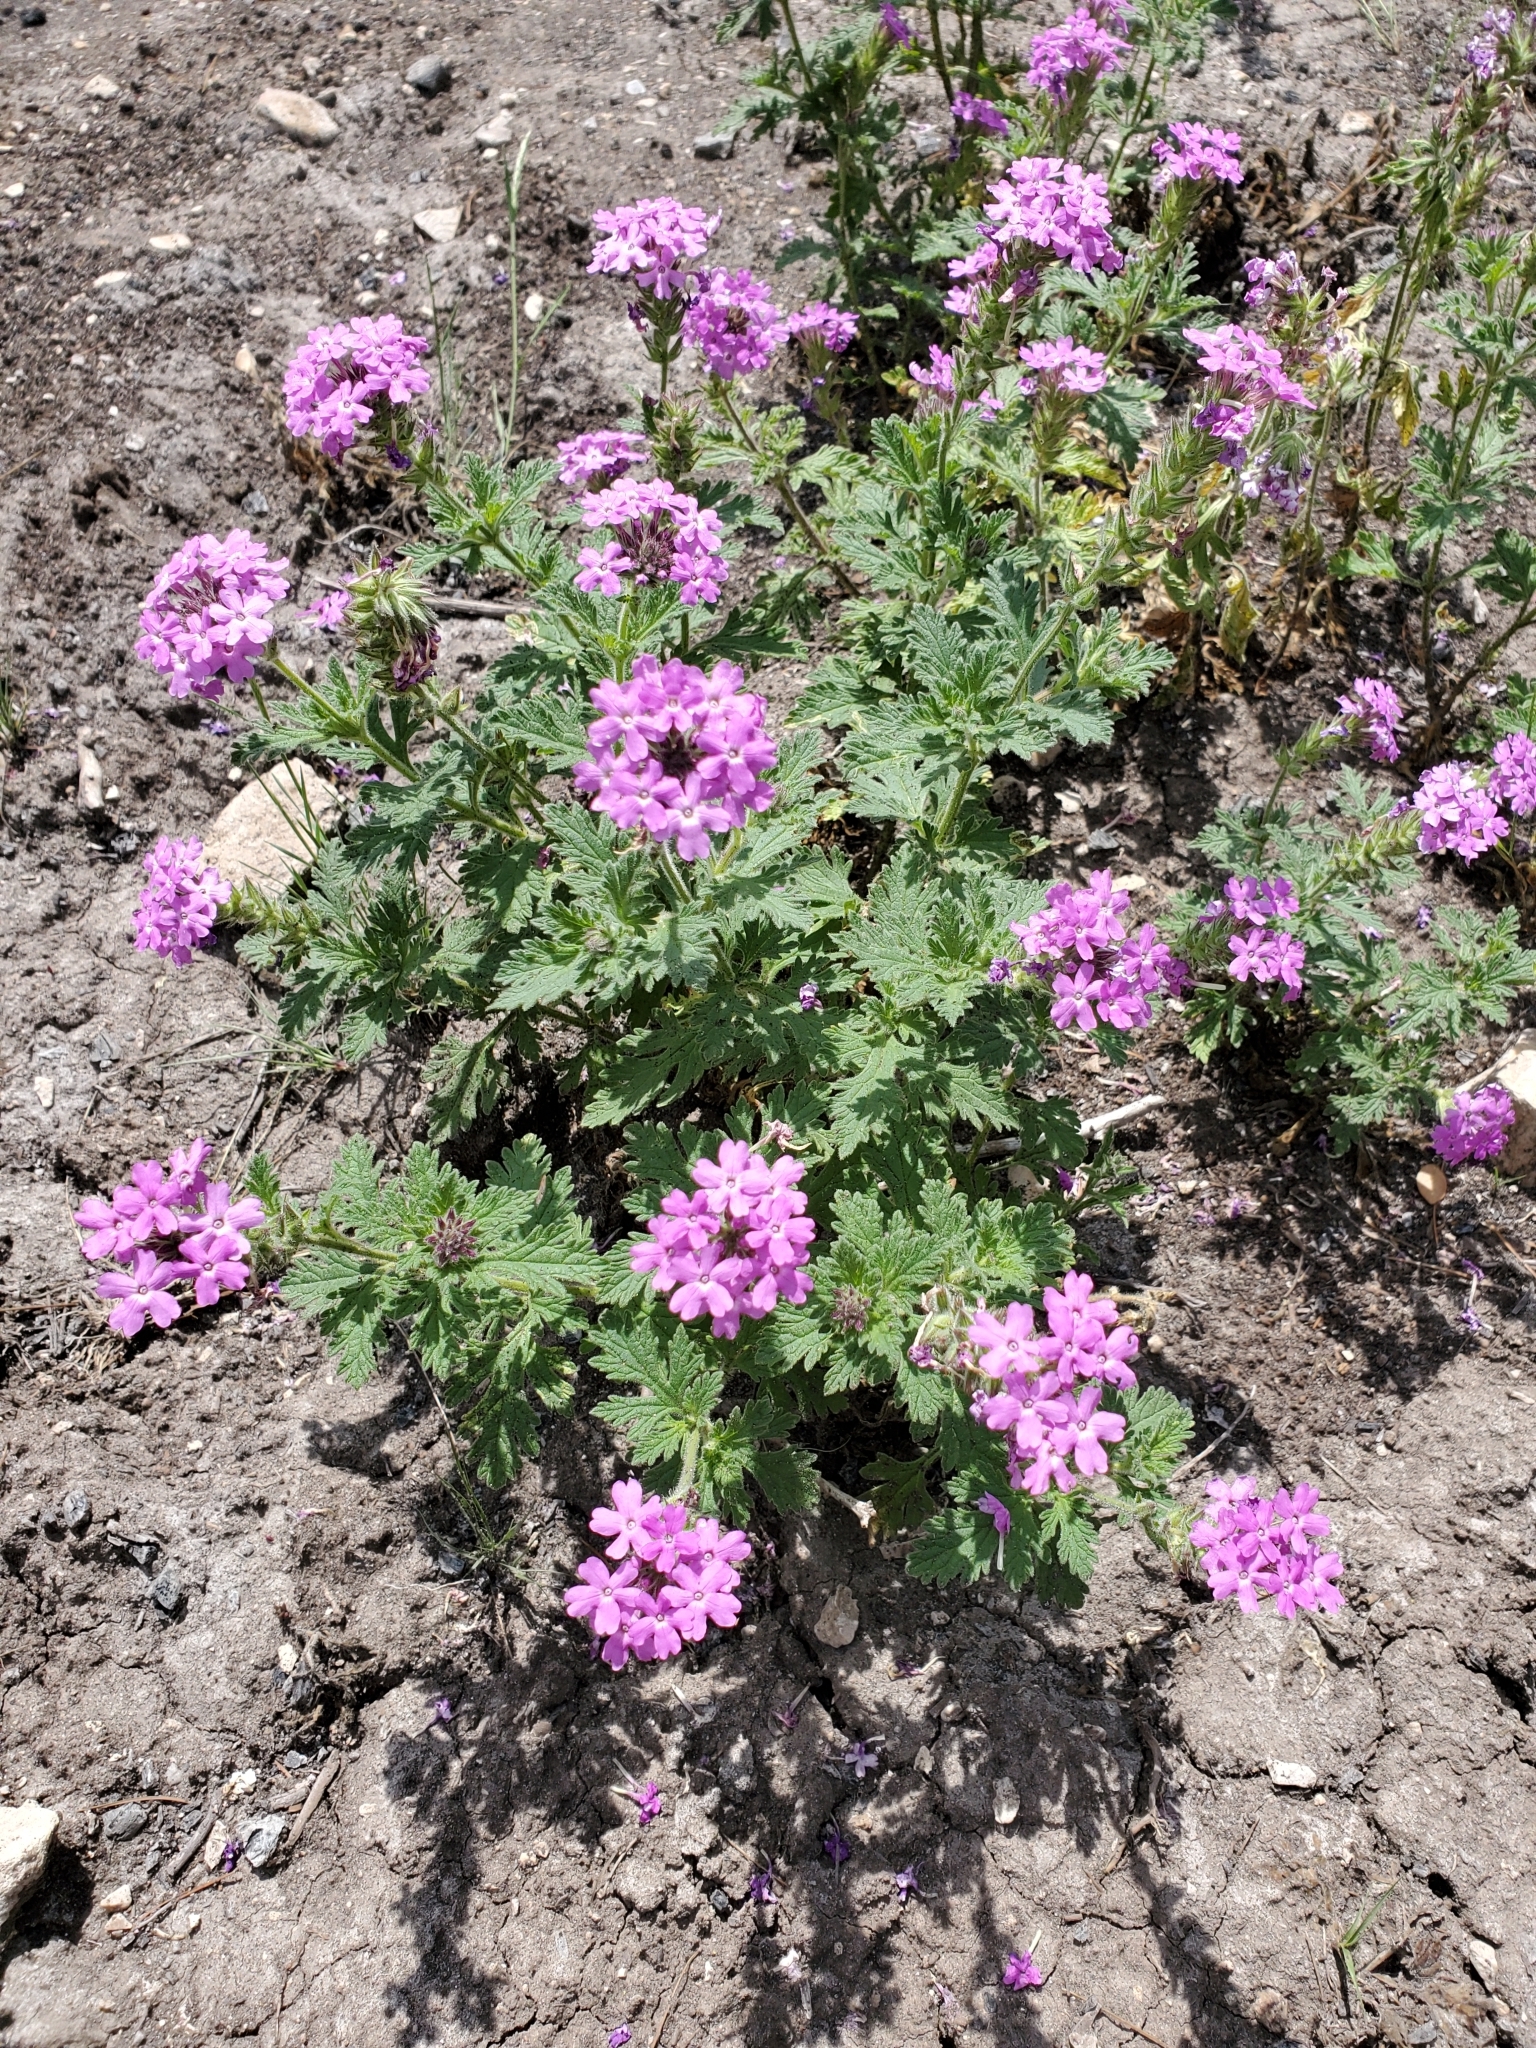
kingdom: Plantae
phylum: Tracheophyta
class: Magnoliopsida
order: Lamiales
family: Verbenaceae
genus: Verbena
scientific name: Verbena tumidula
